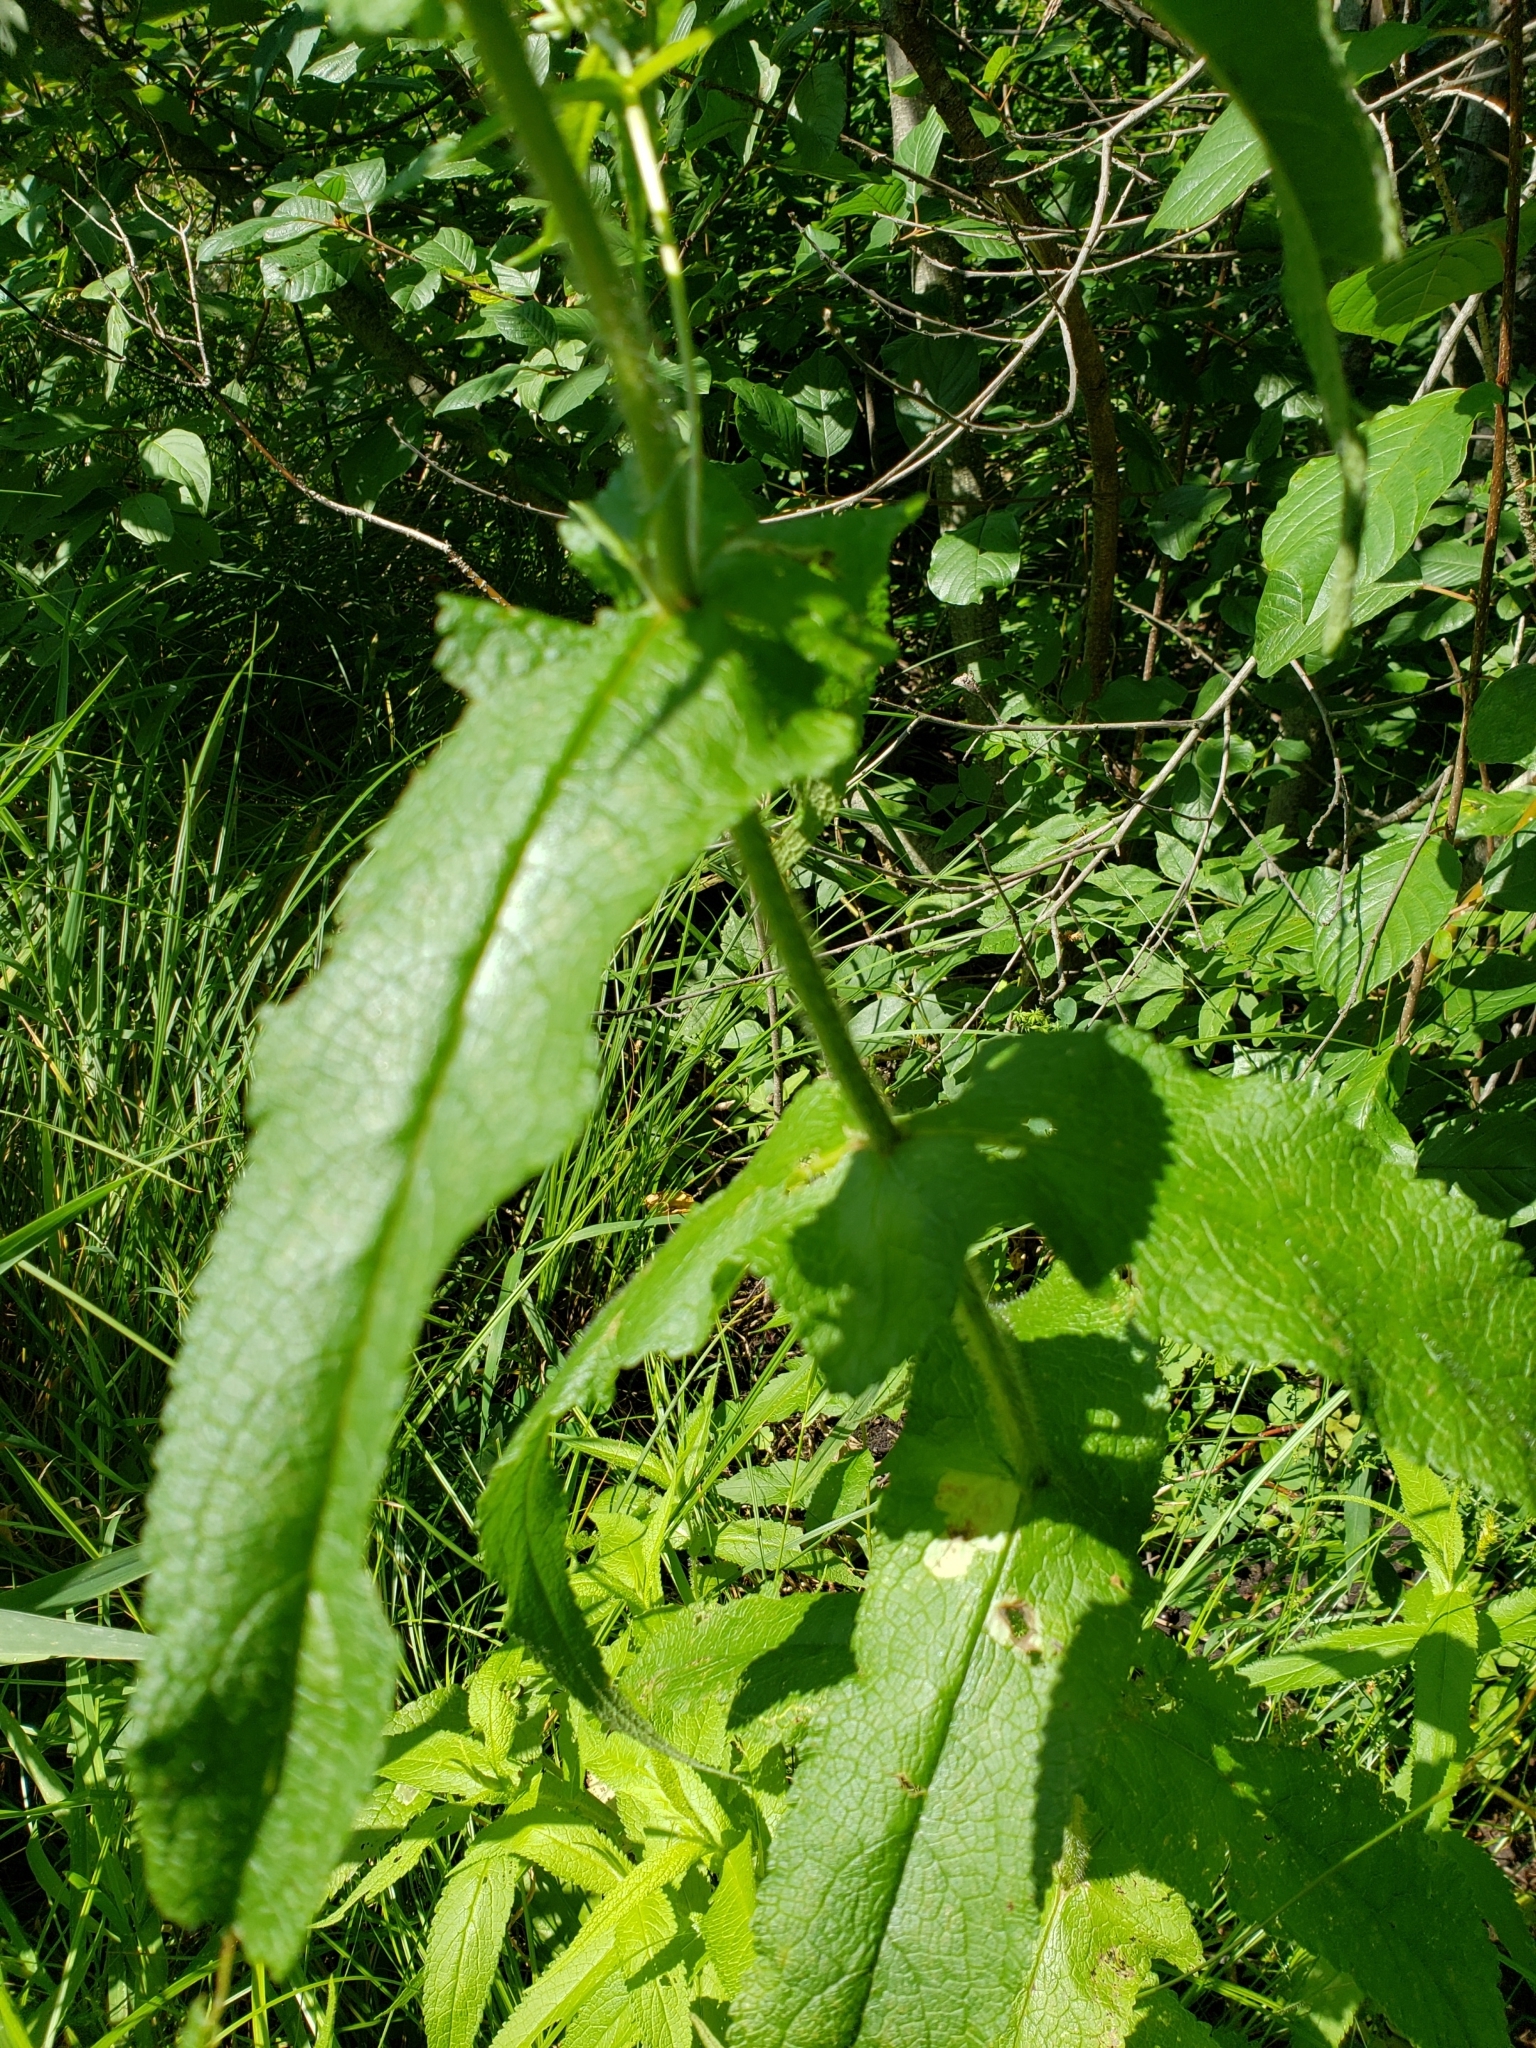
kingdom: Plantae
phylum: Tracheophyta
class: Magnoliopsida
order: Asterales
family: Asteraceae
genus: Eupatorium
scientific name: Eupatorium perfoliatum
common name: Boneset
